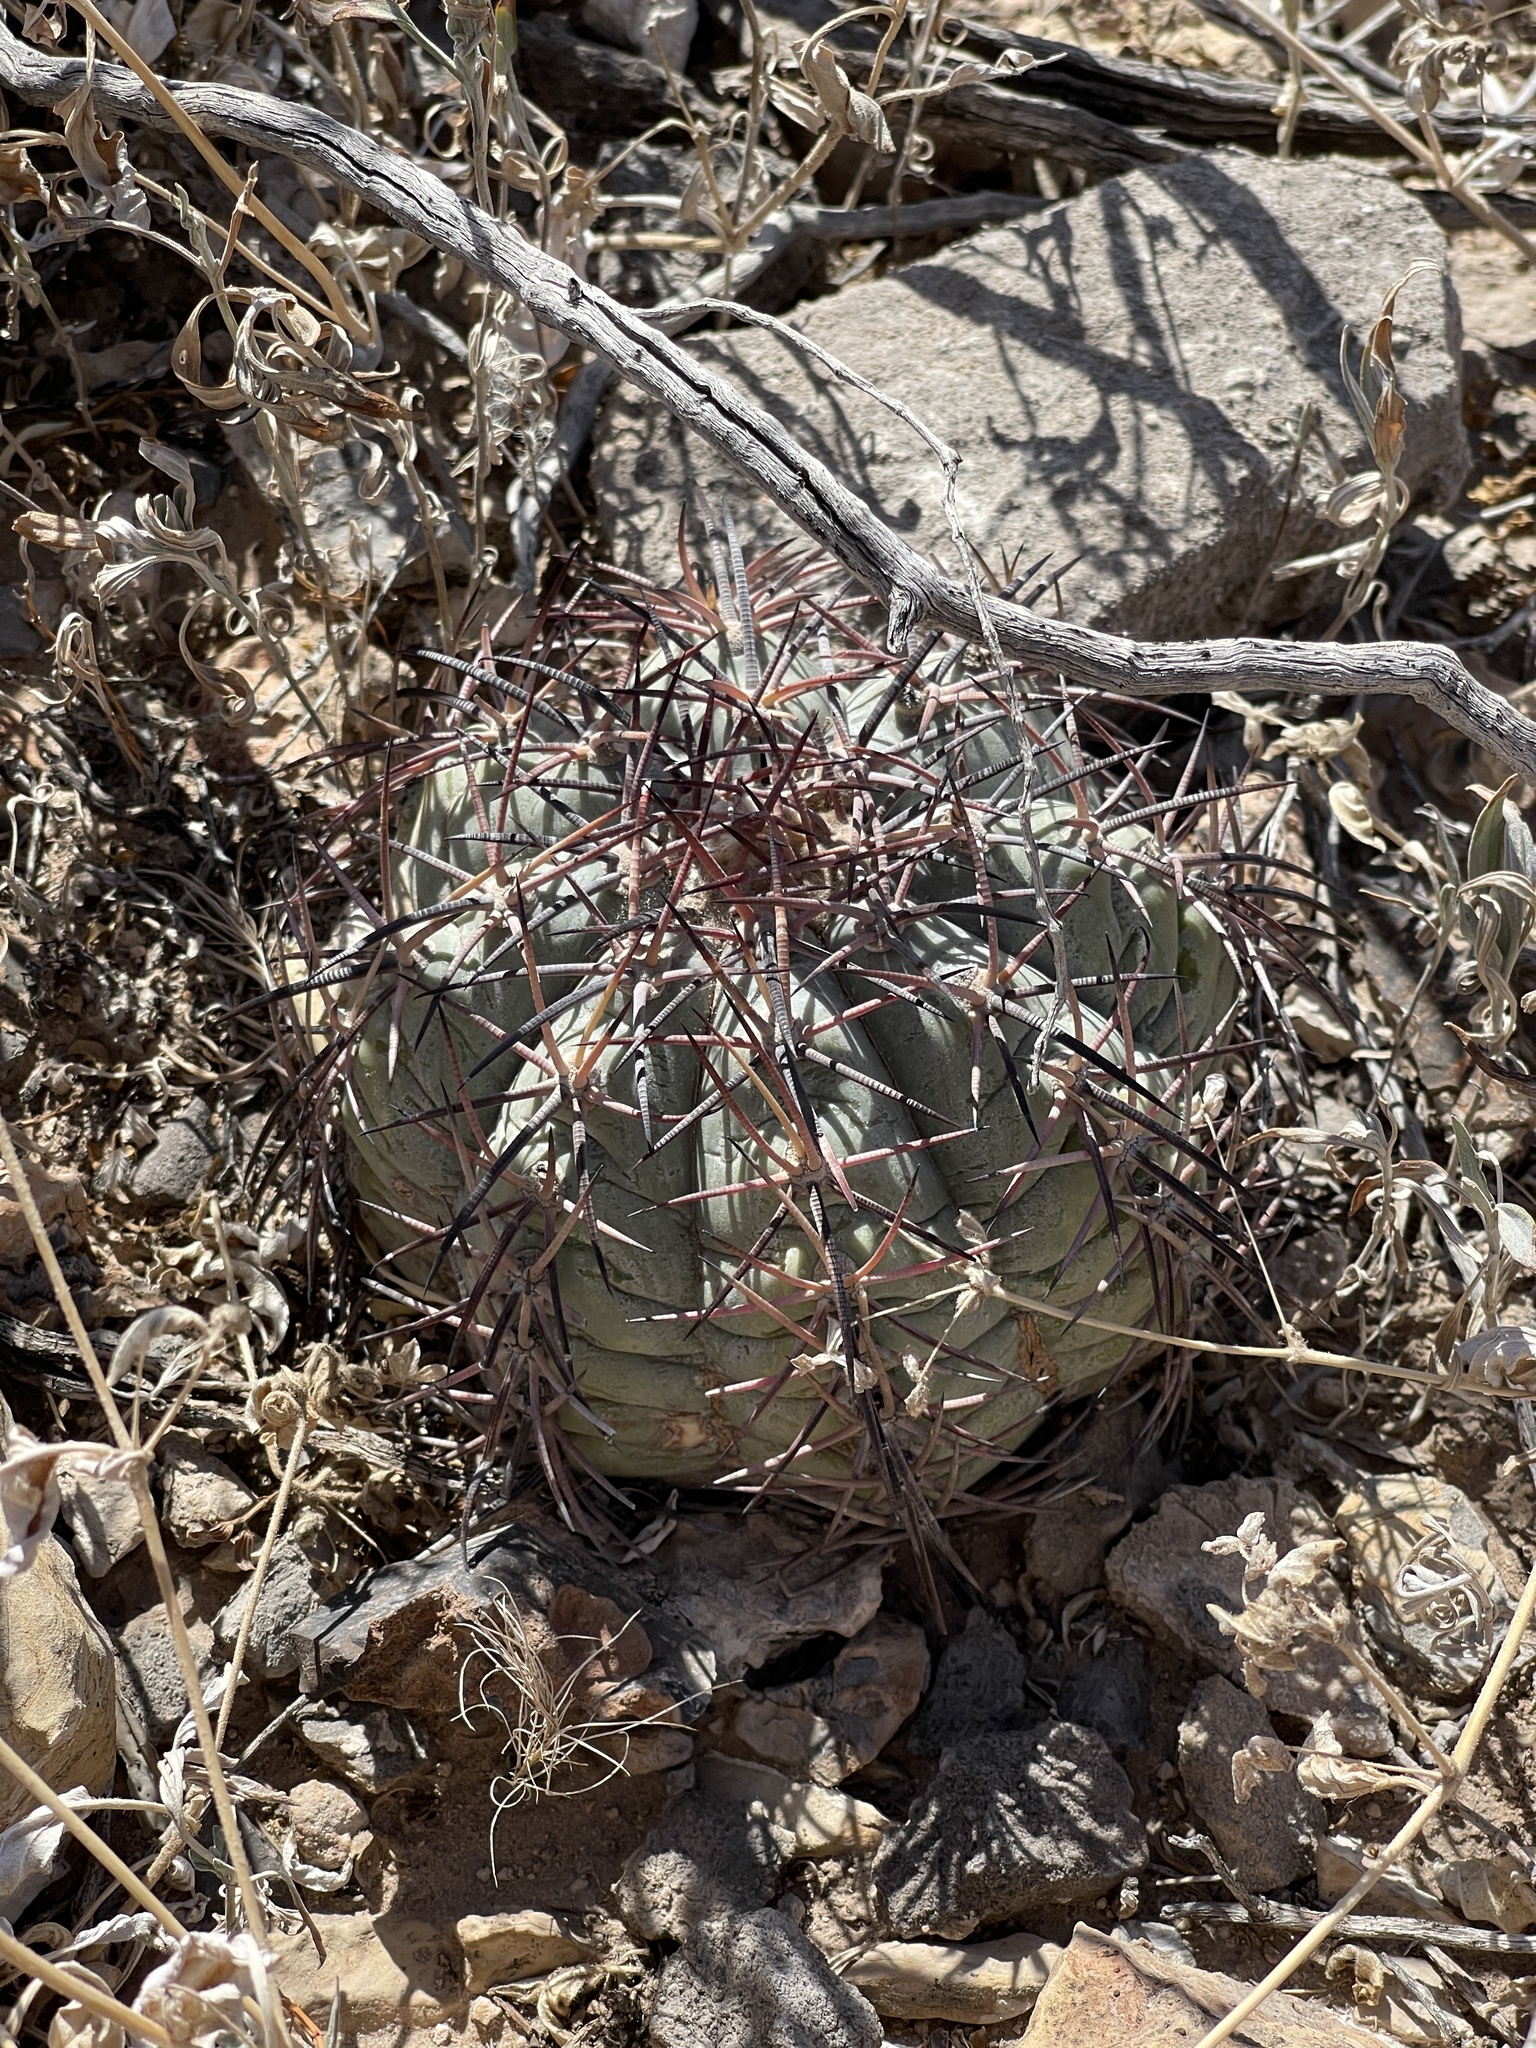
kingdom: Plantae
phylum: Tracheophyta
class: Magnoliopsida
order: Caryophyllales
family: Cactaceae
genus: Echinocactus
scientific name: Echinocactus horizonthalonius
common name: Devilshead
